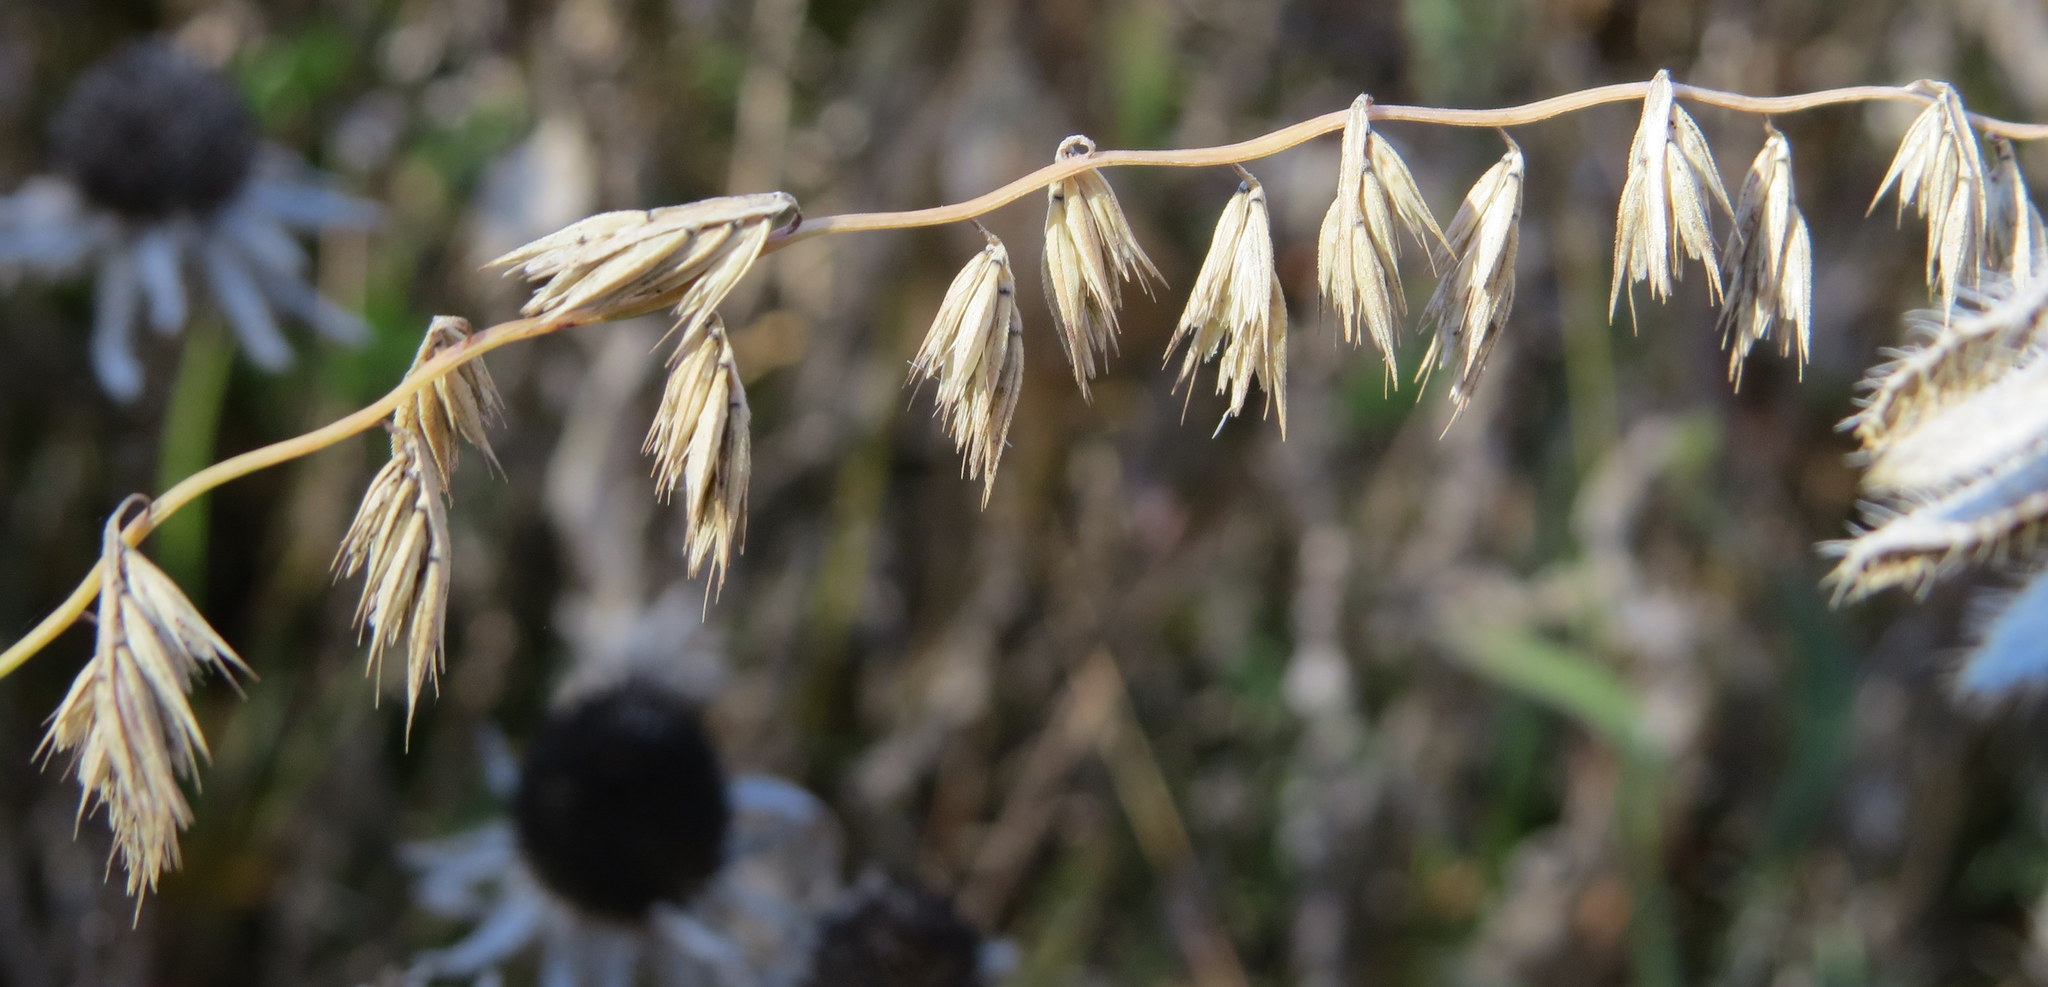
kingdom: Plantae
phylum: Tracheophyta
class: Liliopsida
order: Poales
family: Poaceae
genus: Bouteloua
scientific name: Bouteloua curtipendula
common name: Side-oats grama
